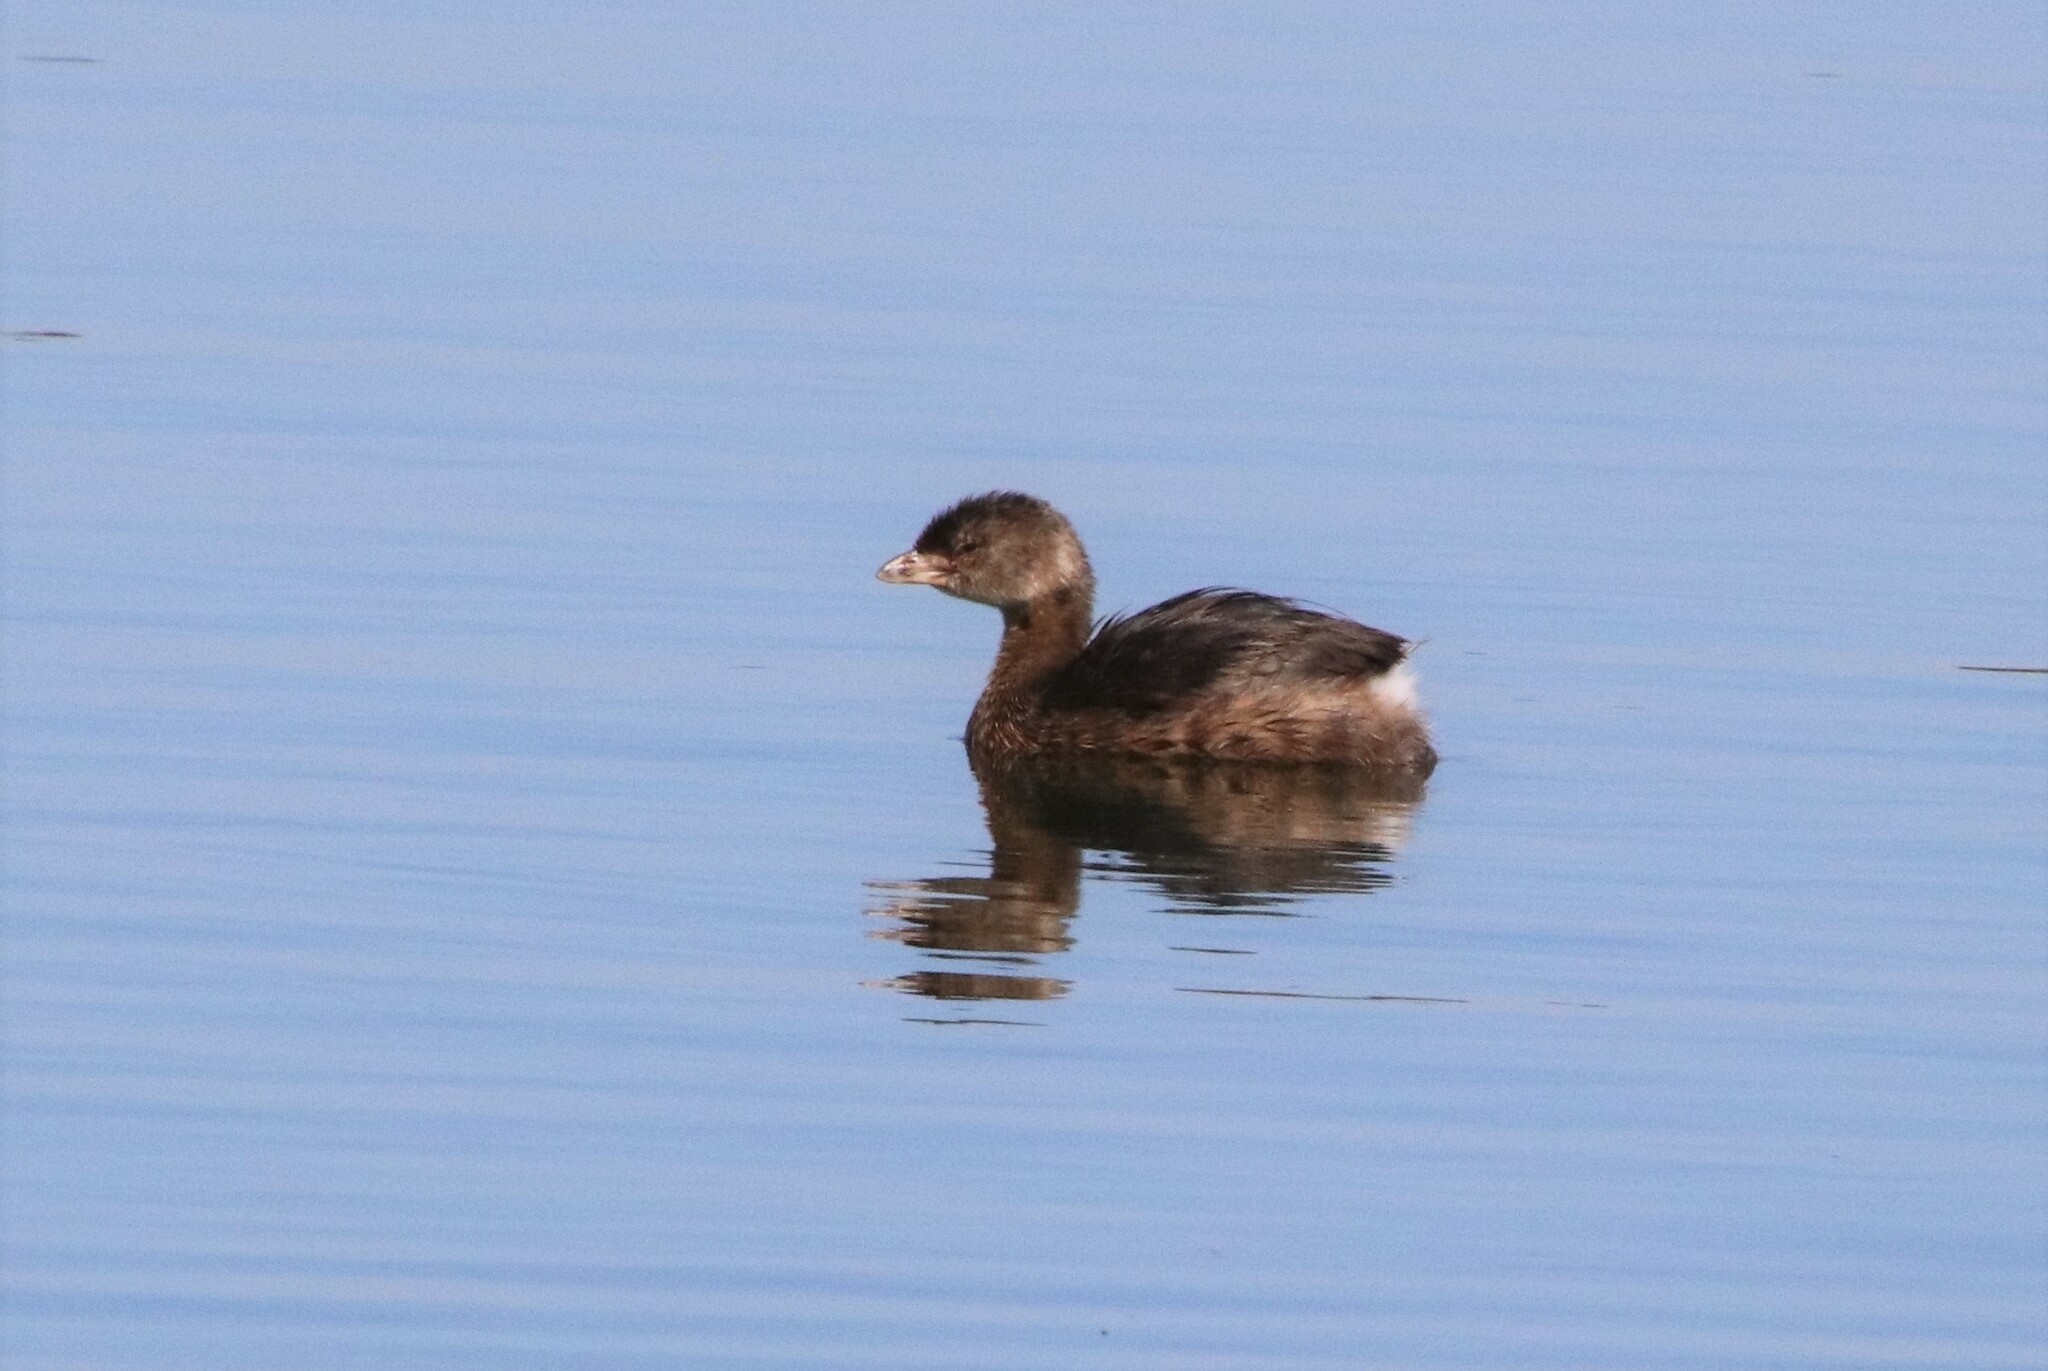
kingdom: Animalia
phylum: Chordata
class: Aves
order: Podicipediformes
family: Podicipedidae
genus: Podilymbus
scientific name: Podilymbus podiceps
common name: Pied-billed grebe
